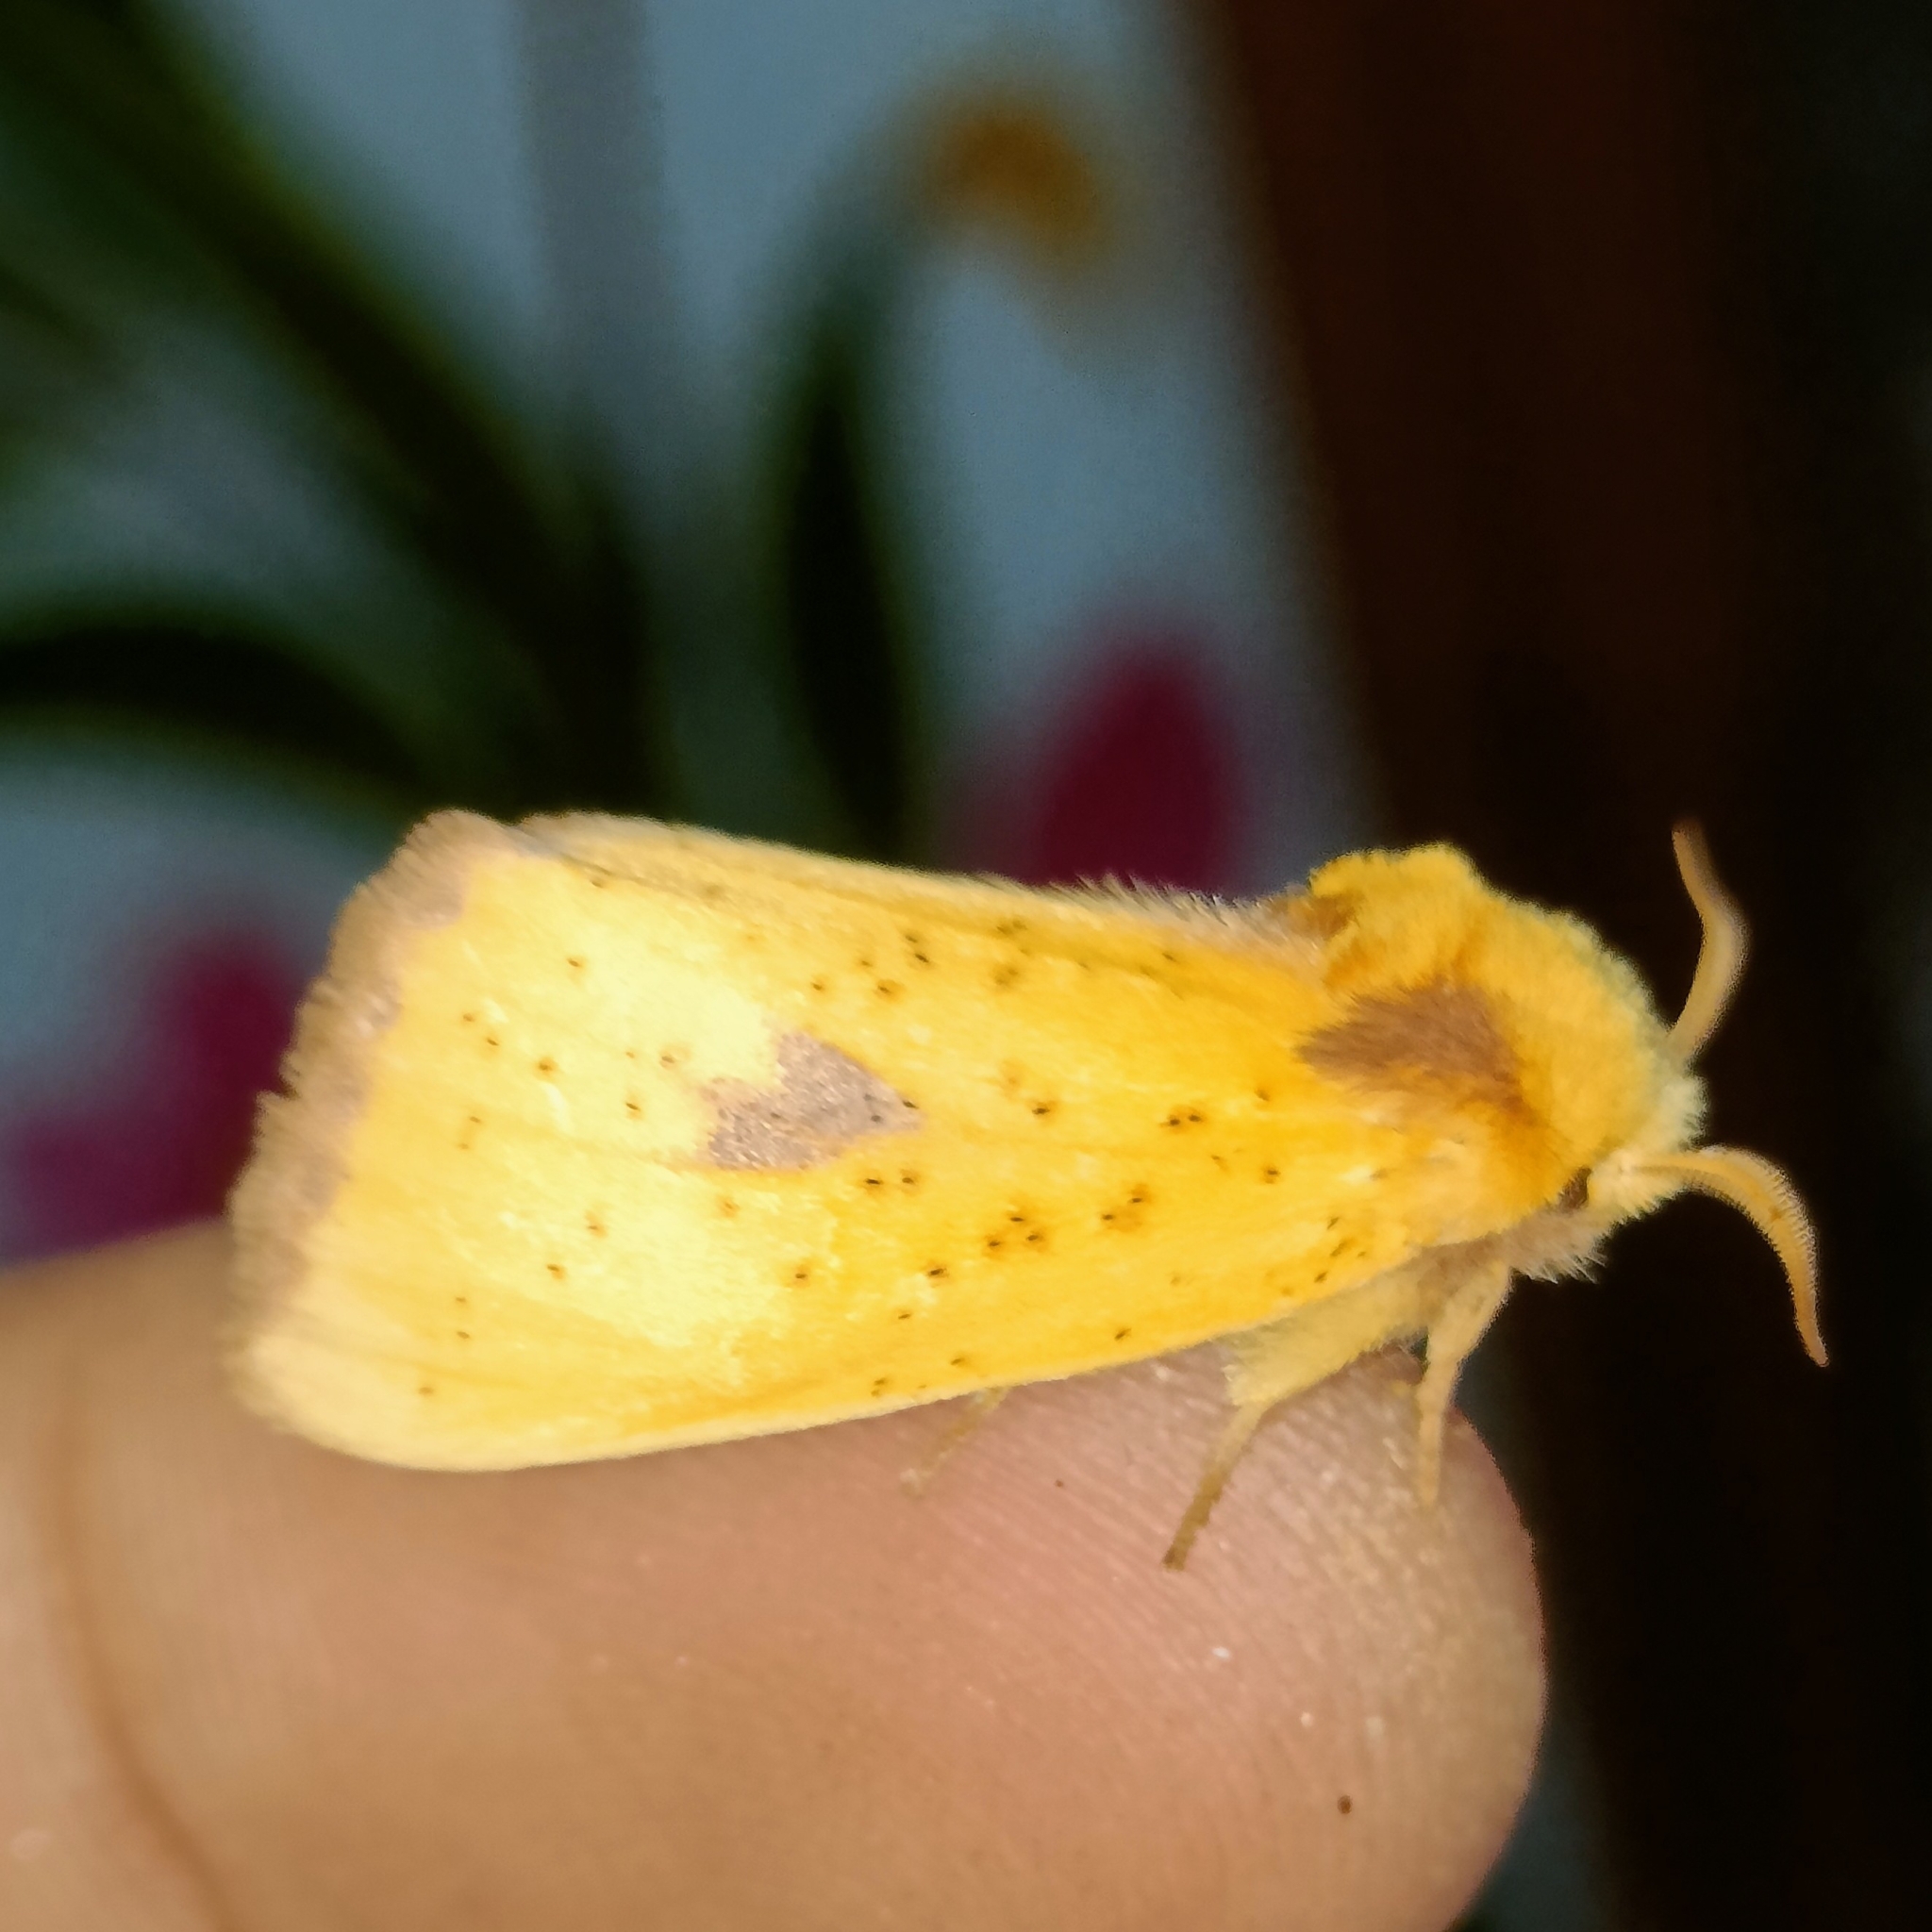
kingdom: Animalia
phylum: Arthropoda
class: Insecta
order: Lepidoptera
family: Notodontidae
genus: Antheua
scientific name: Antheua servula
